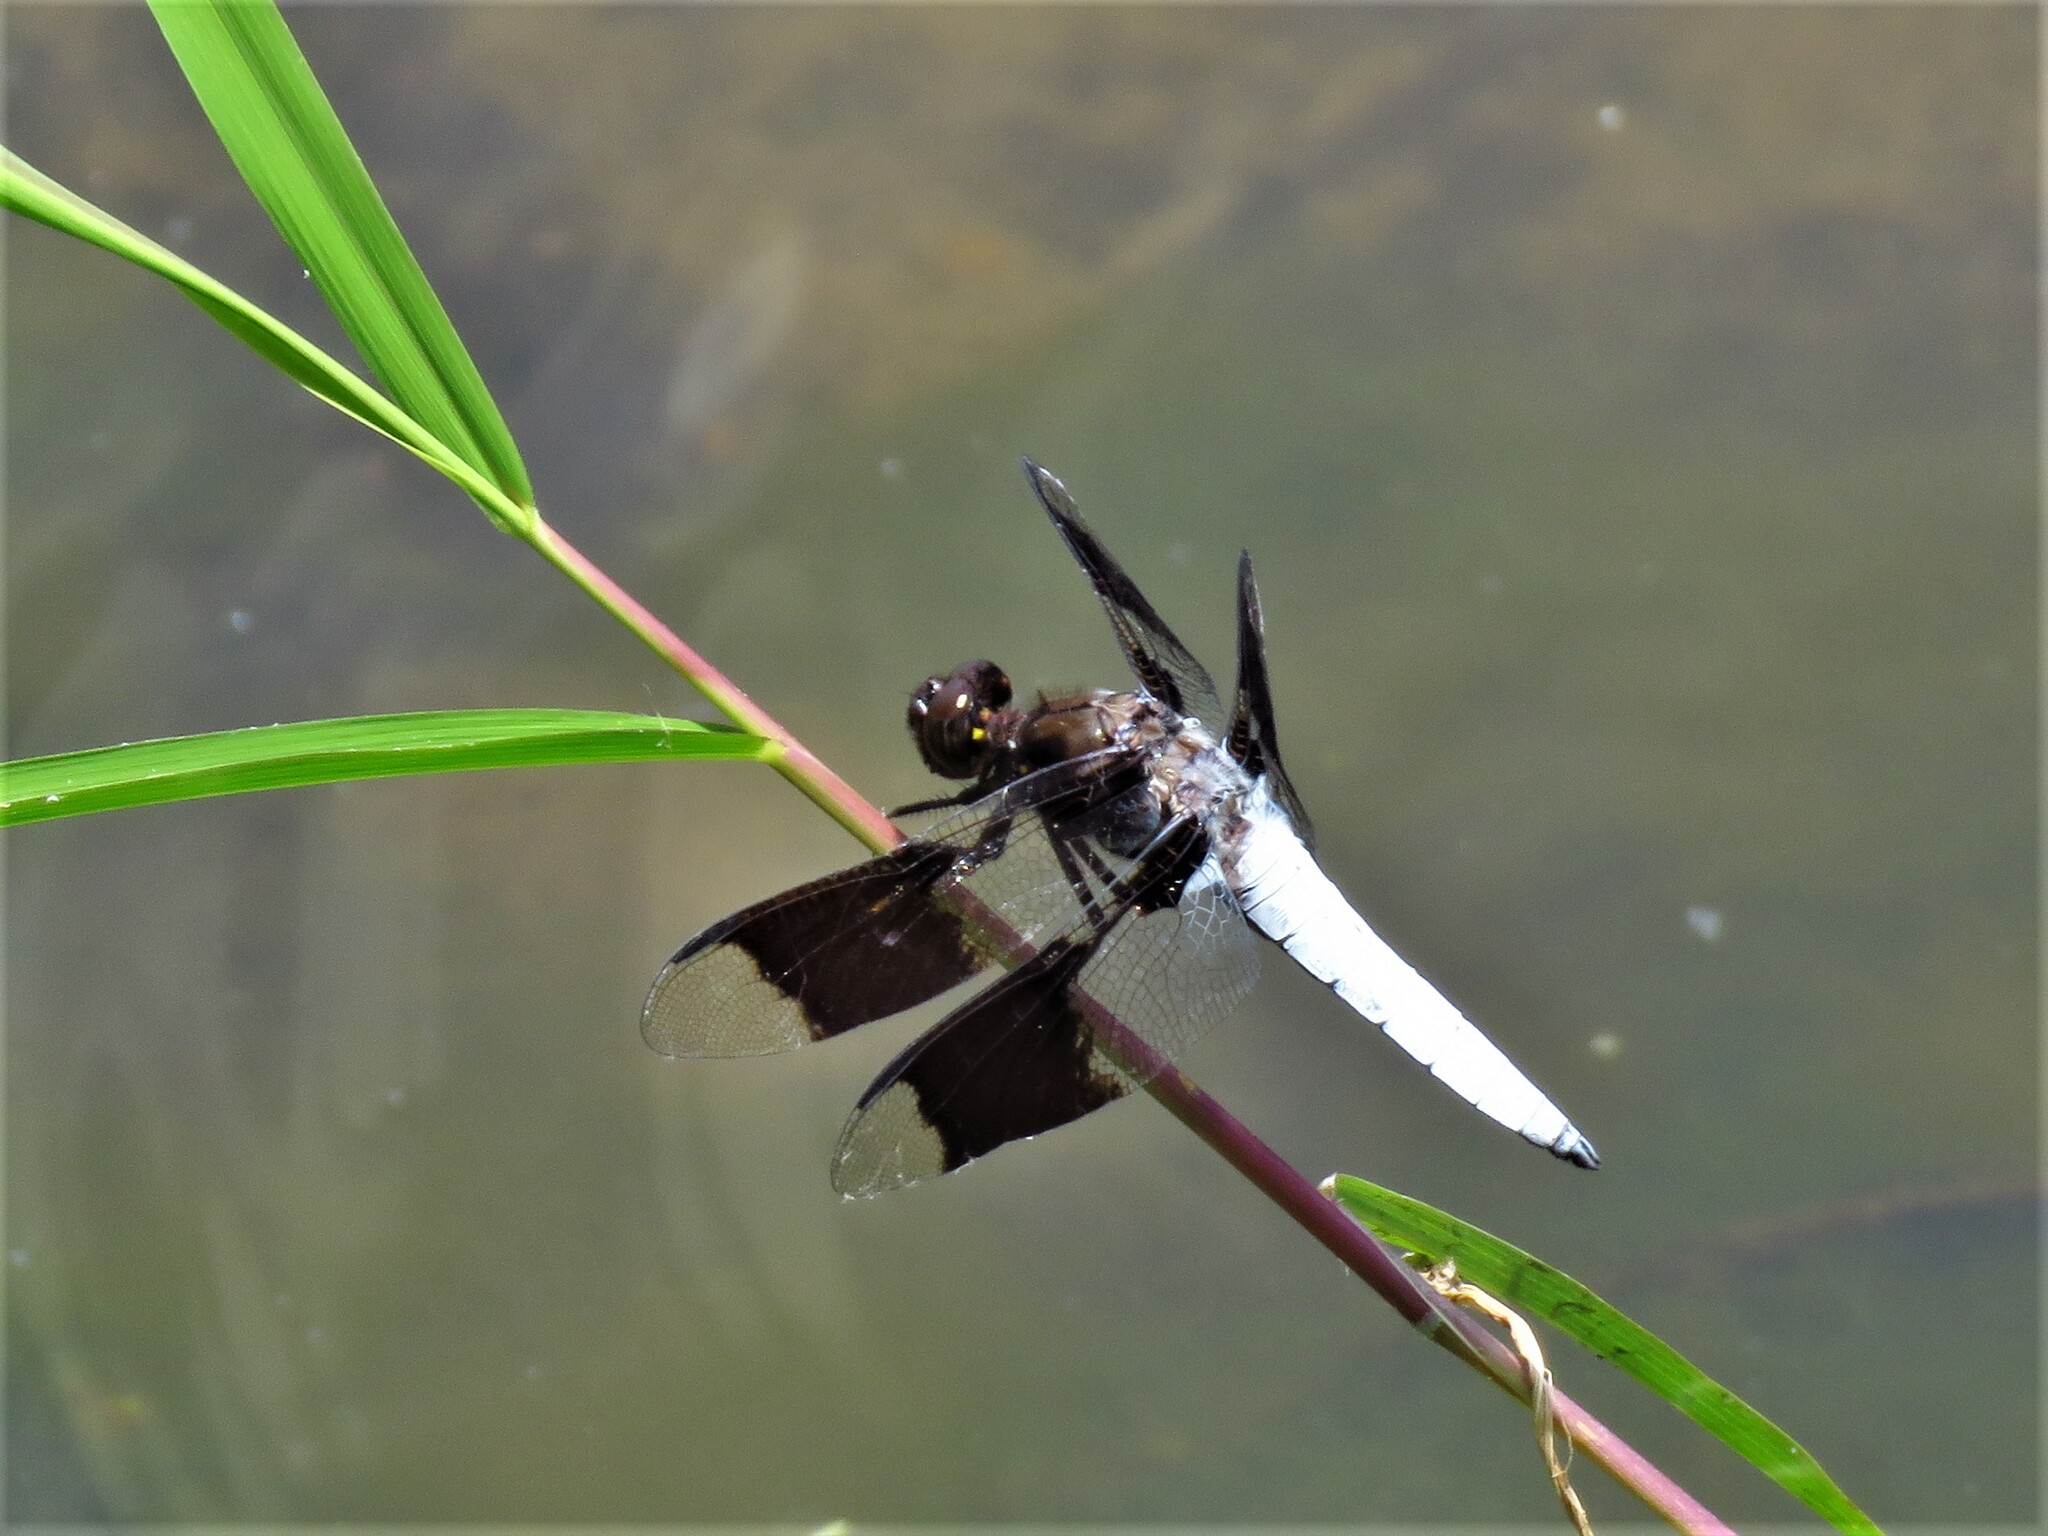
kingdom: Animalia
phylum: Arthropoda
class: Insecta
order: Odonata
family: Libellulidae
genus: Plathemis
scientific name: Plathemis lydia
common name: Common whitetail
